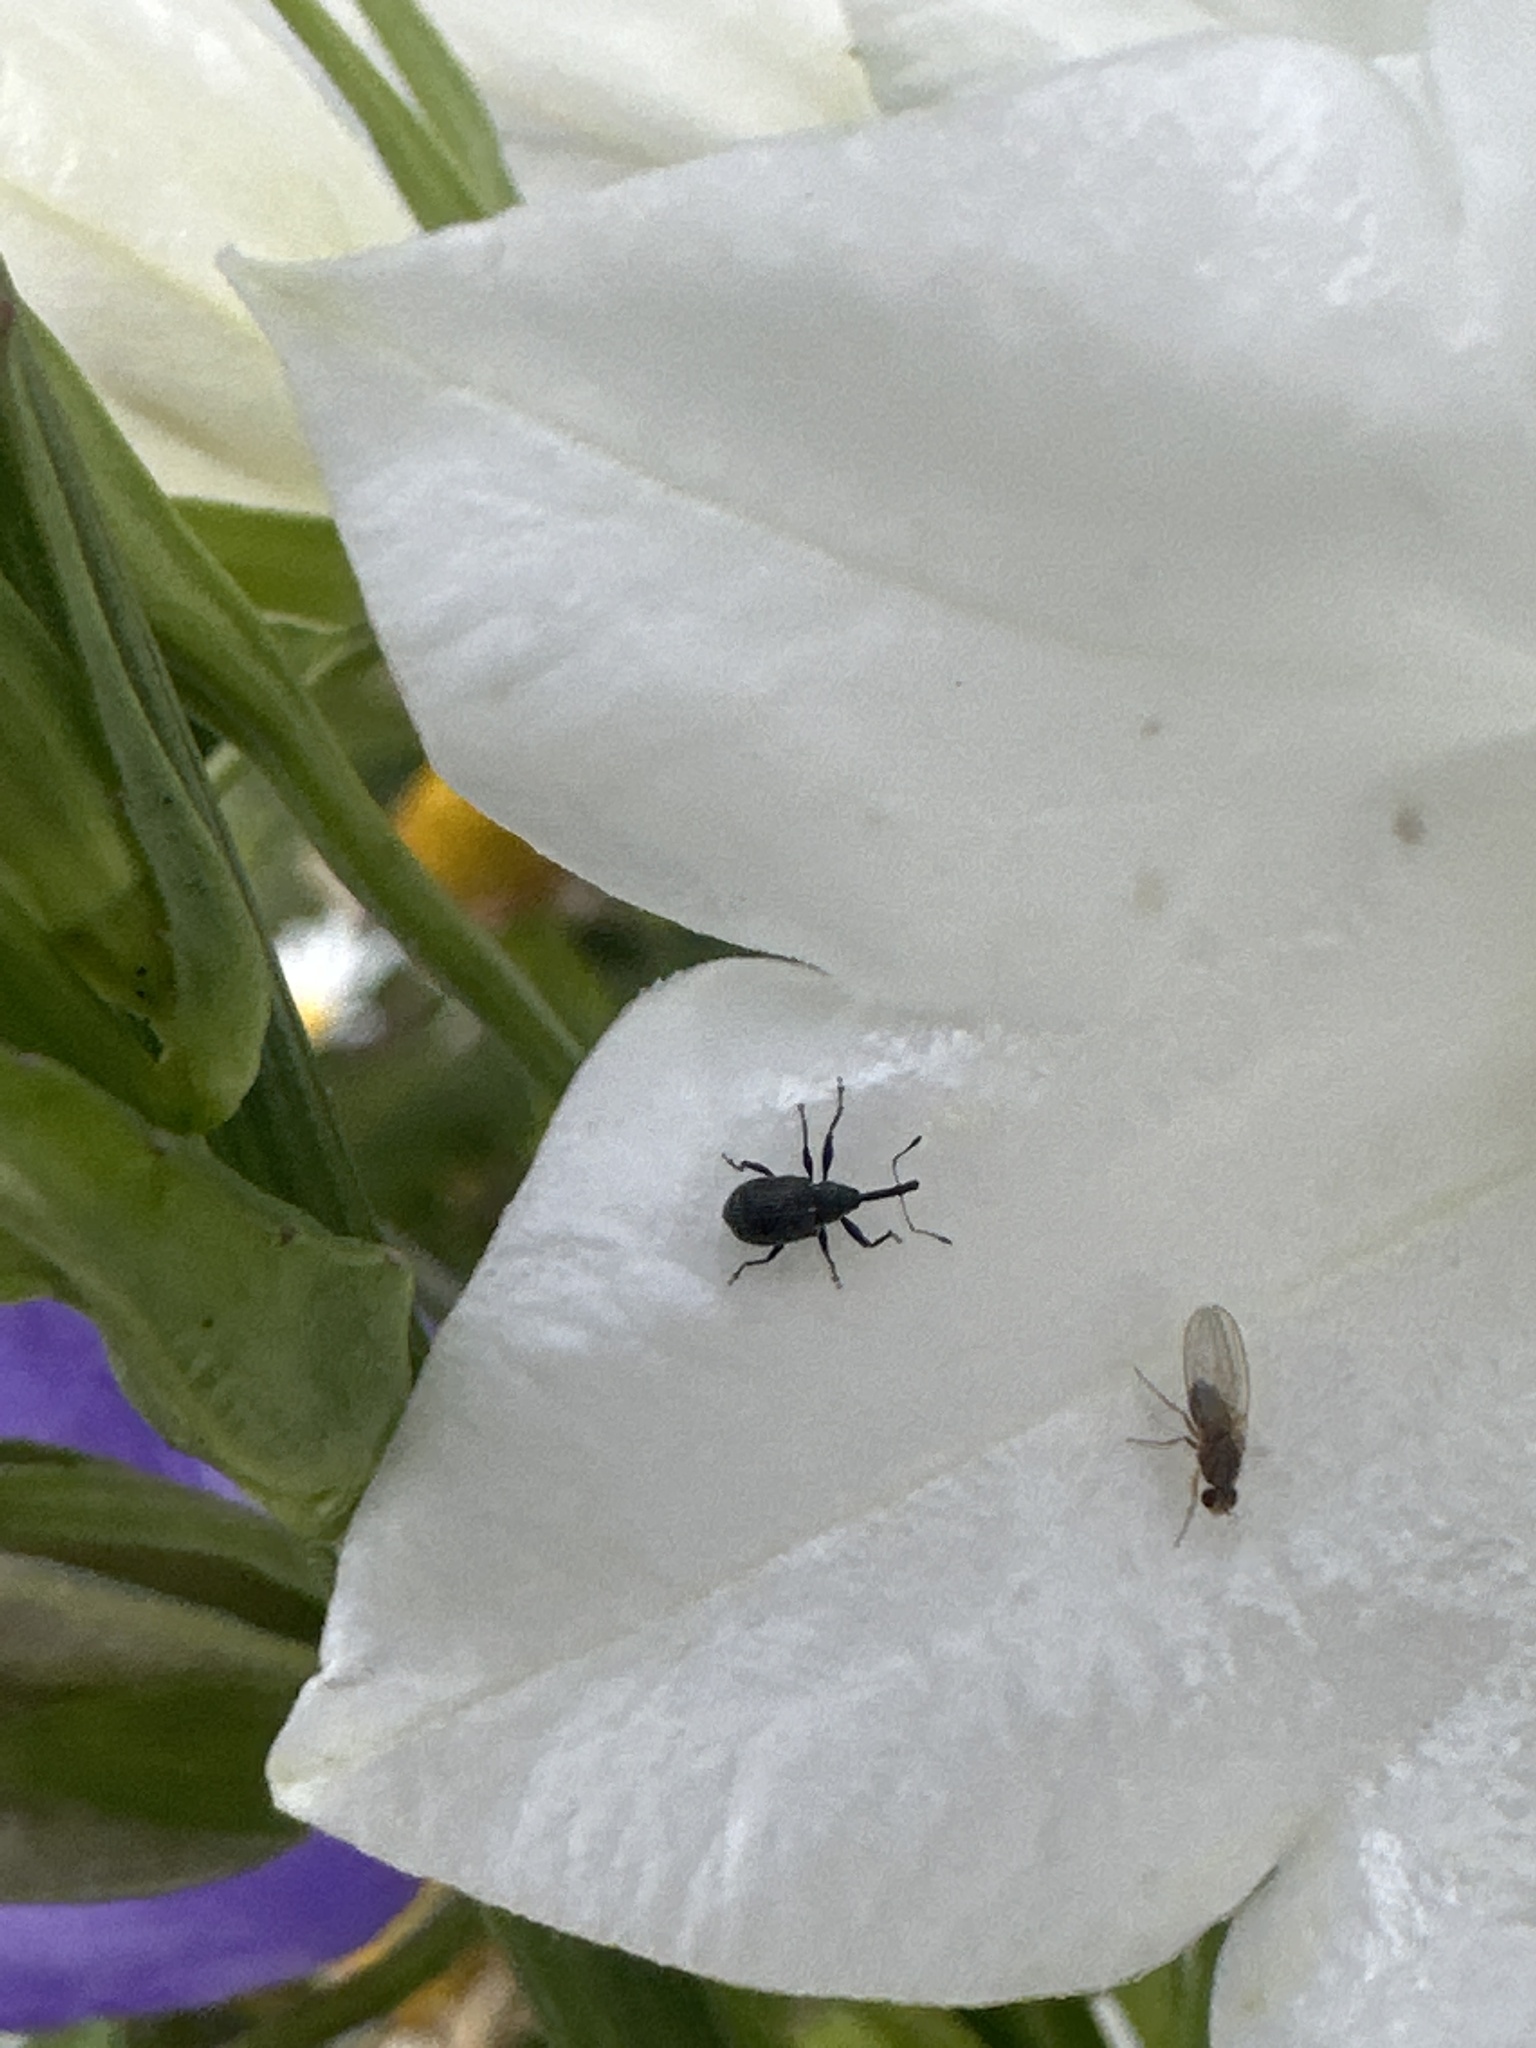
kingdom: Animalia
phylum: Arthropoda
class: Insecta
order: Coleoptera
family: Curculionidae
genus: Anthonomus
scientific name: Anthonomus rubi
